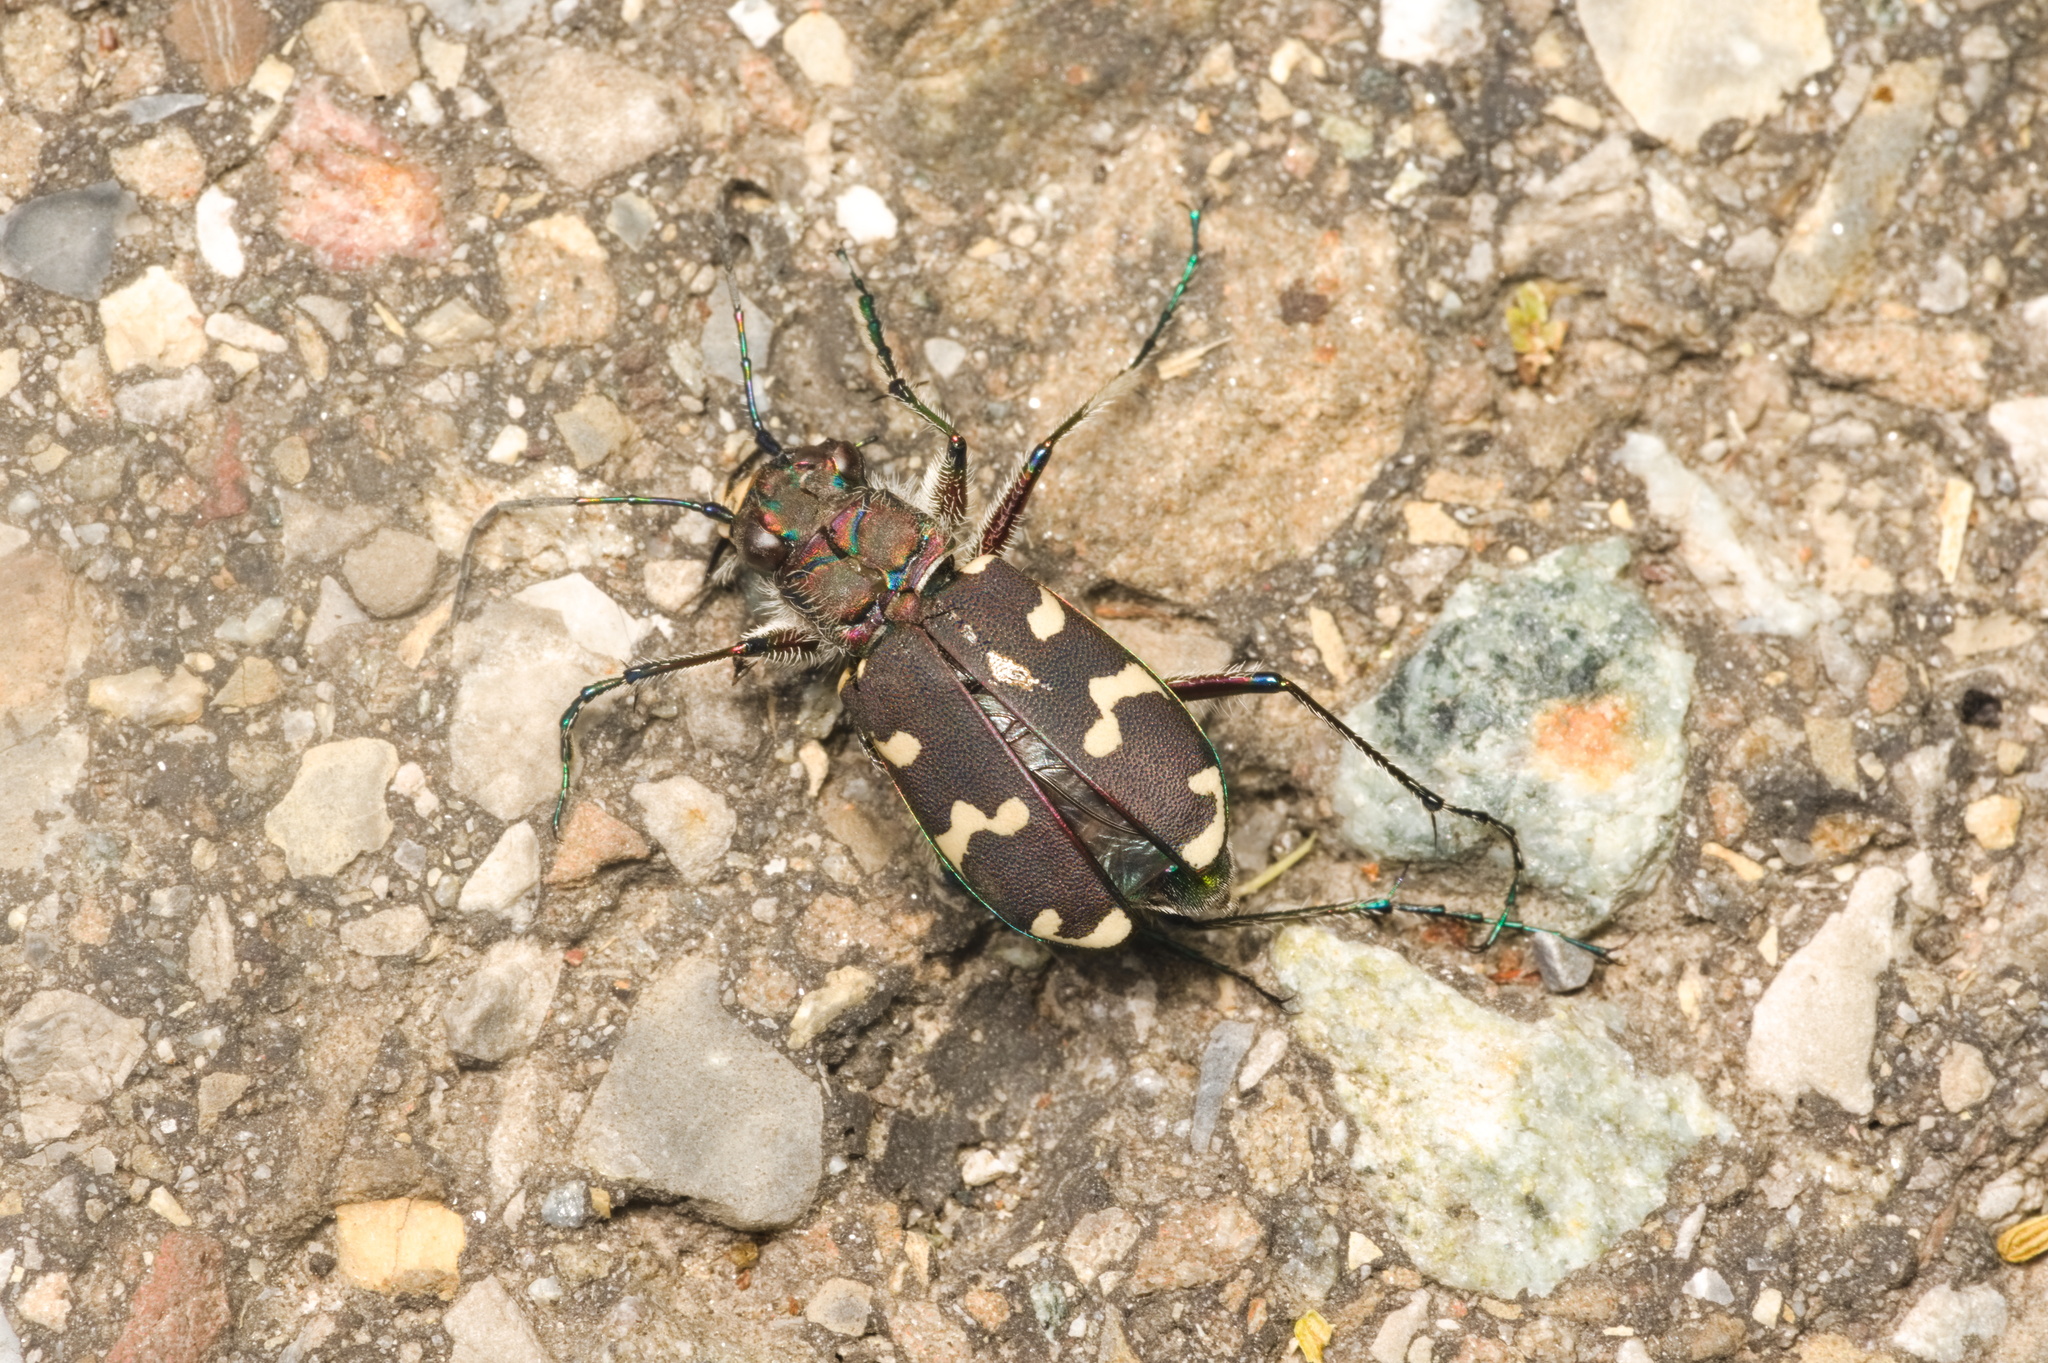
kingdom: Animalia
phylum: Arthropoda
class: Insecta
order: Coleoptera
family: Carabidae
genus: Cicindela
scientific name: Cicindela hybrida
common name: Northern dune tiger beetle
